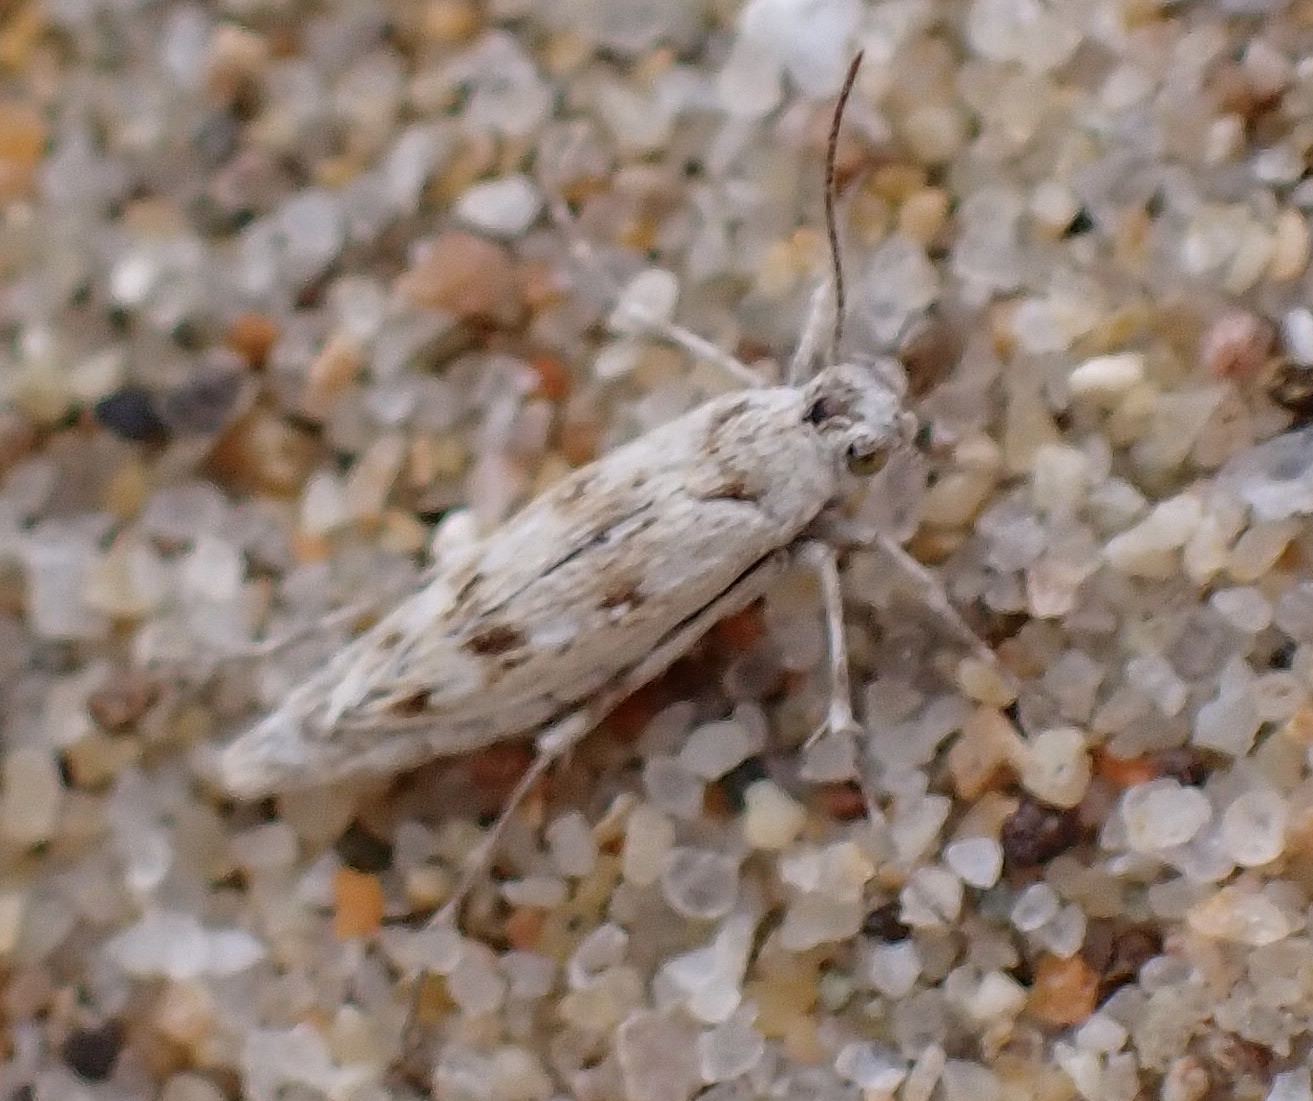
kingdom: Animalia
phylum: Arthropoda
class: Insecta
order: Lepidoptera
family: Scythrididae
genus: Areniscythris
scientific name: Areniscythris brachypteris
